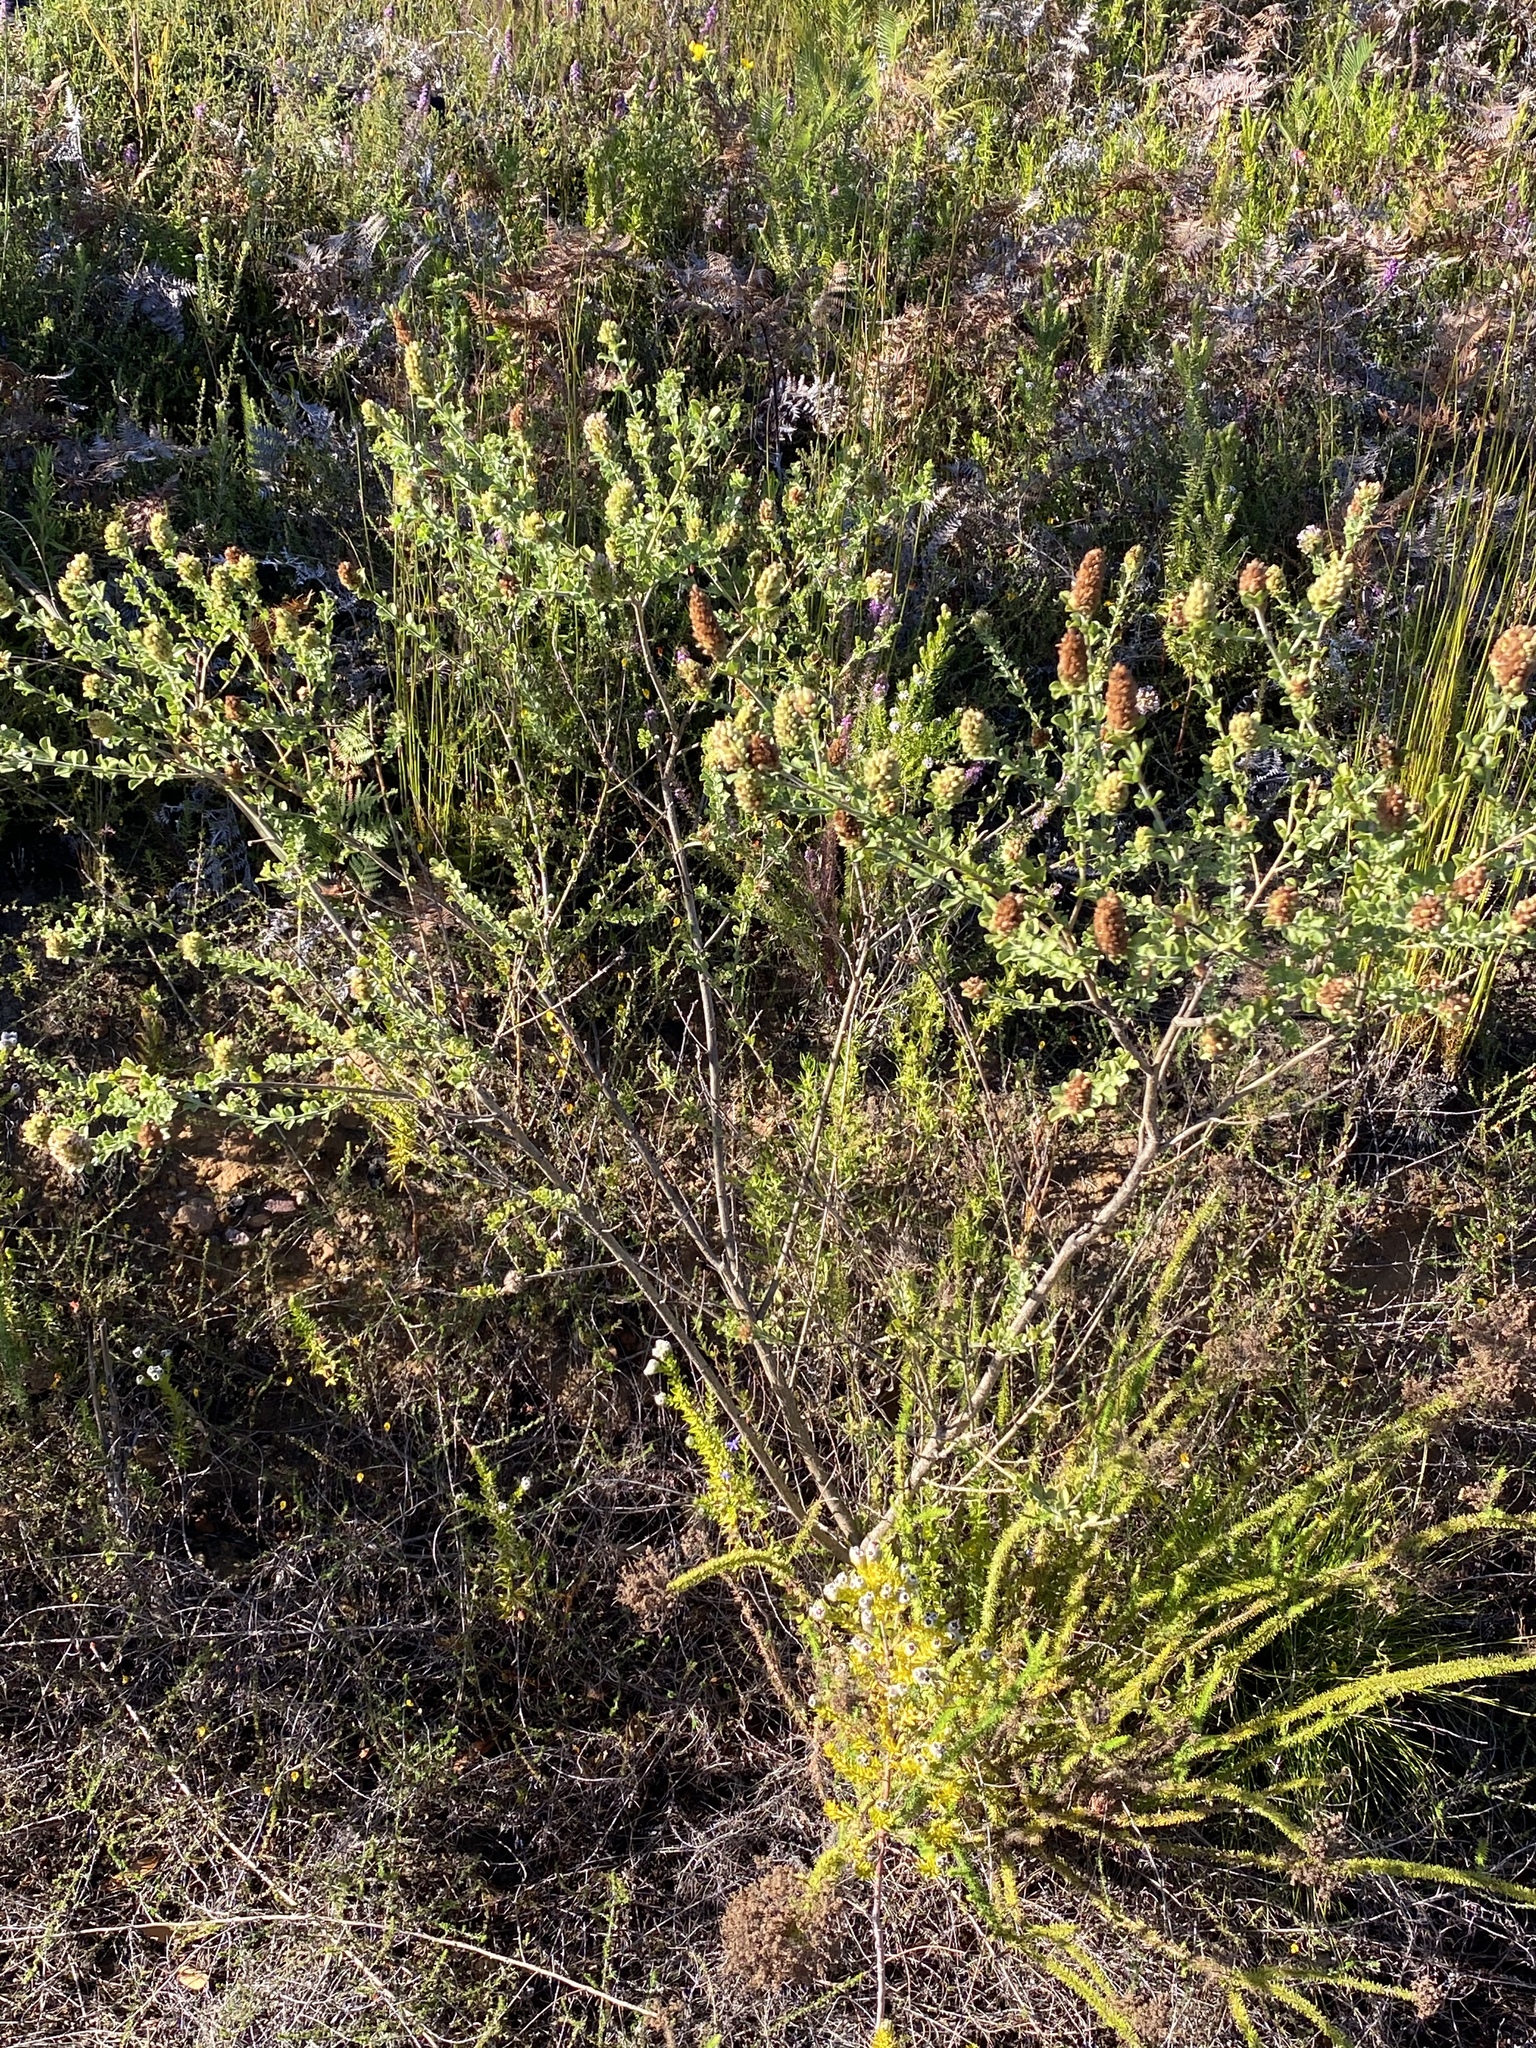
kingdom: Plantae
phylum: Tracheophyta
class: Magnoliopsida
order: Fabales
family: Fabaceae
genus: Psoralea
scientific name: Psoralea stachyera
